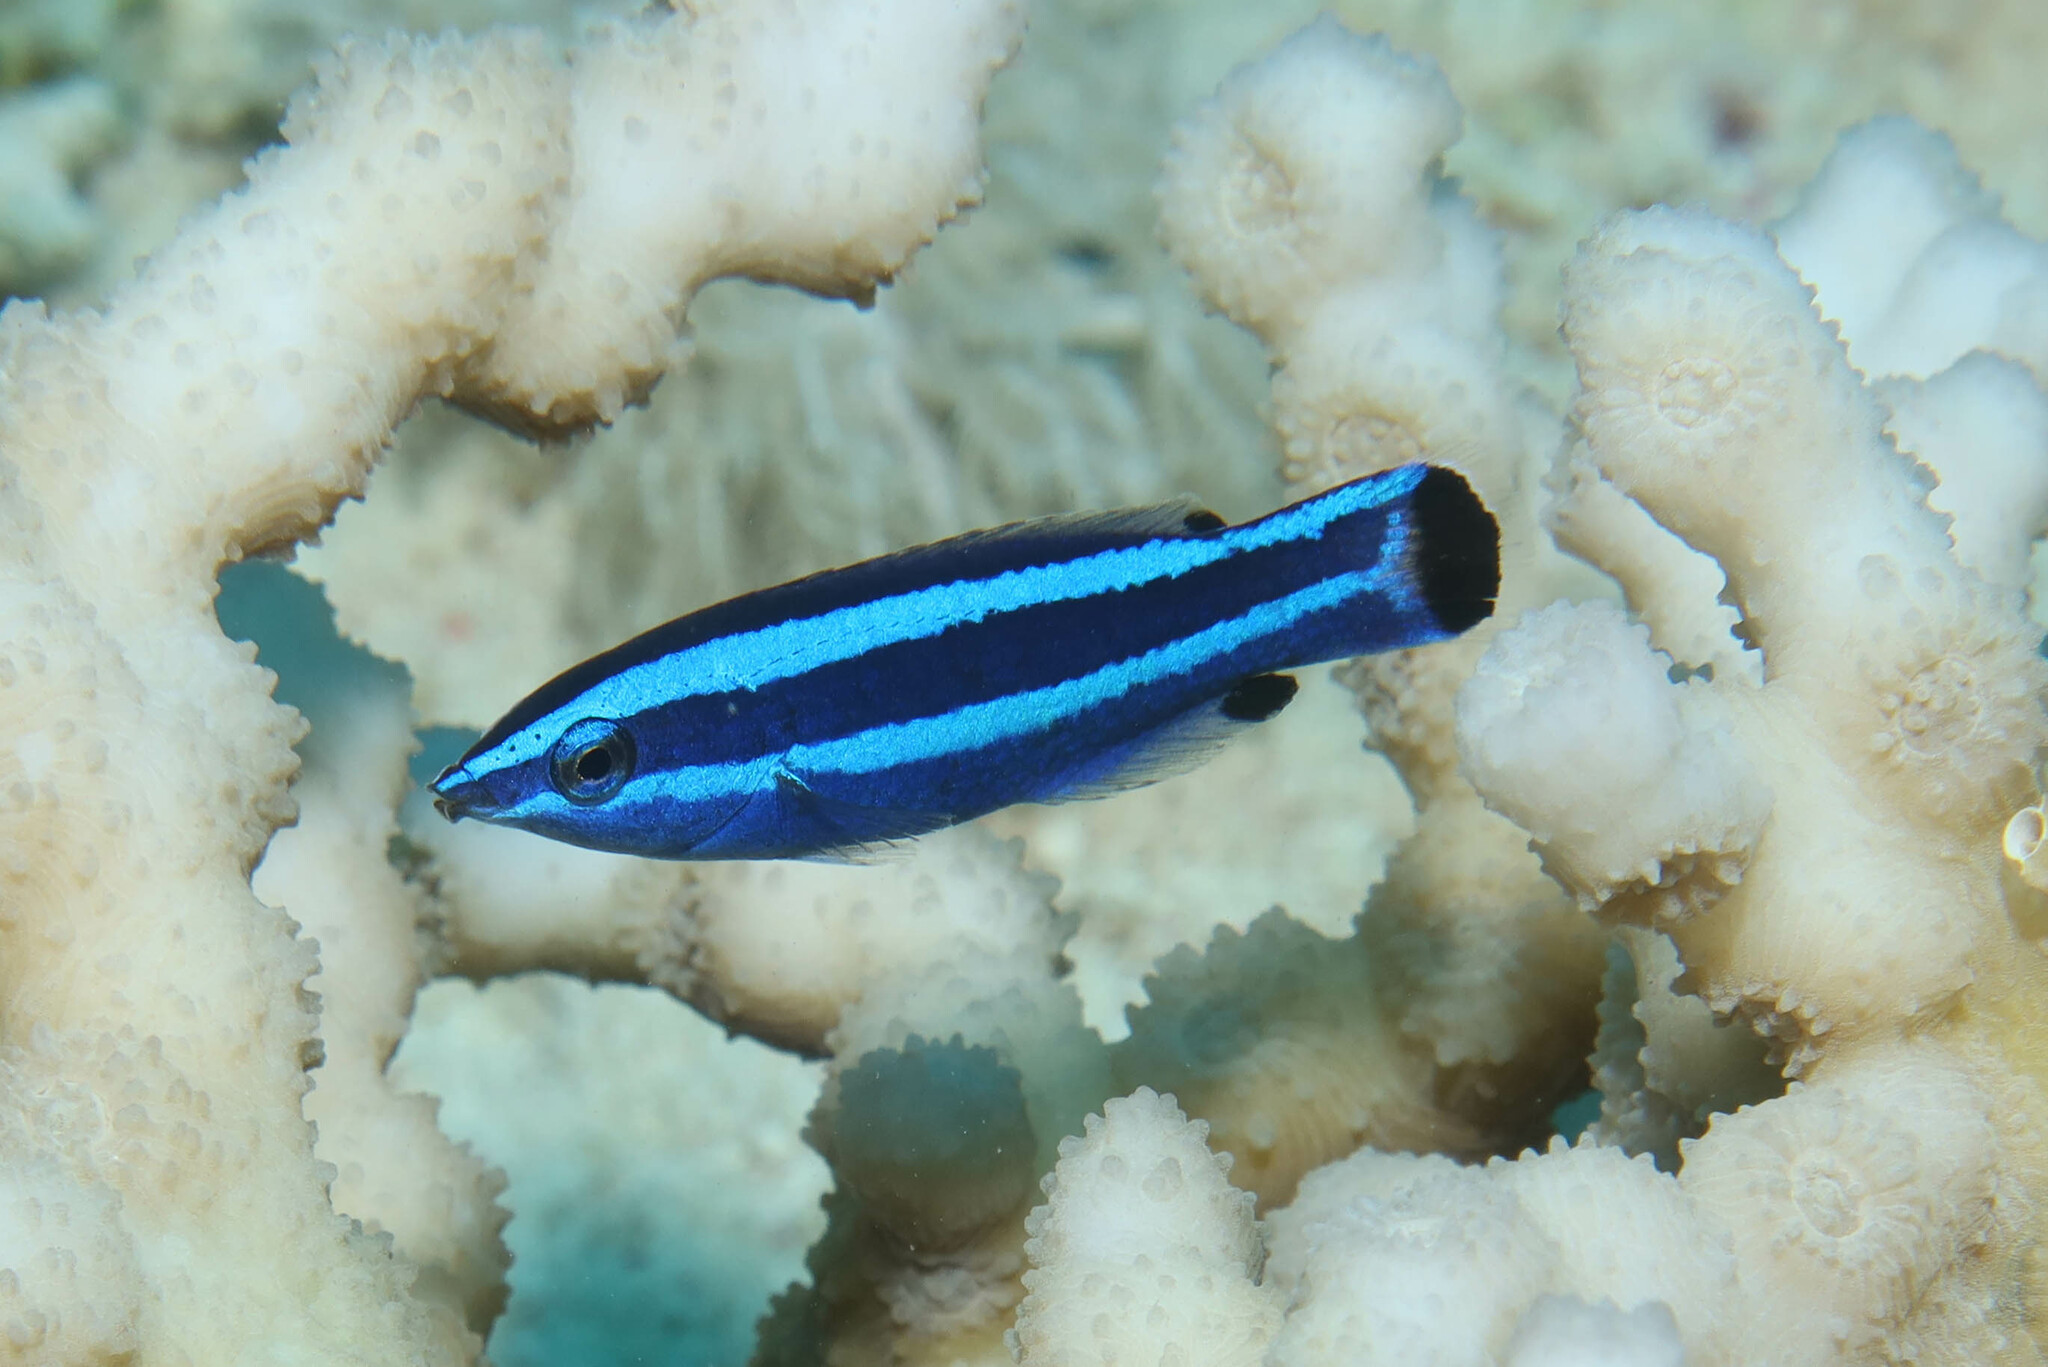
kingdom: Animalia
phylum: Chordata
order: Perciformes
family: Labridae
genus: Larabicus
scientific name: Larabicus quadrilineatus
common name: Fourline wrasse
